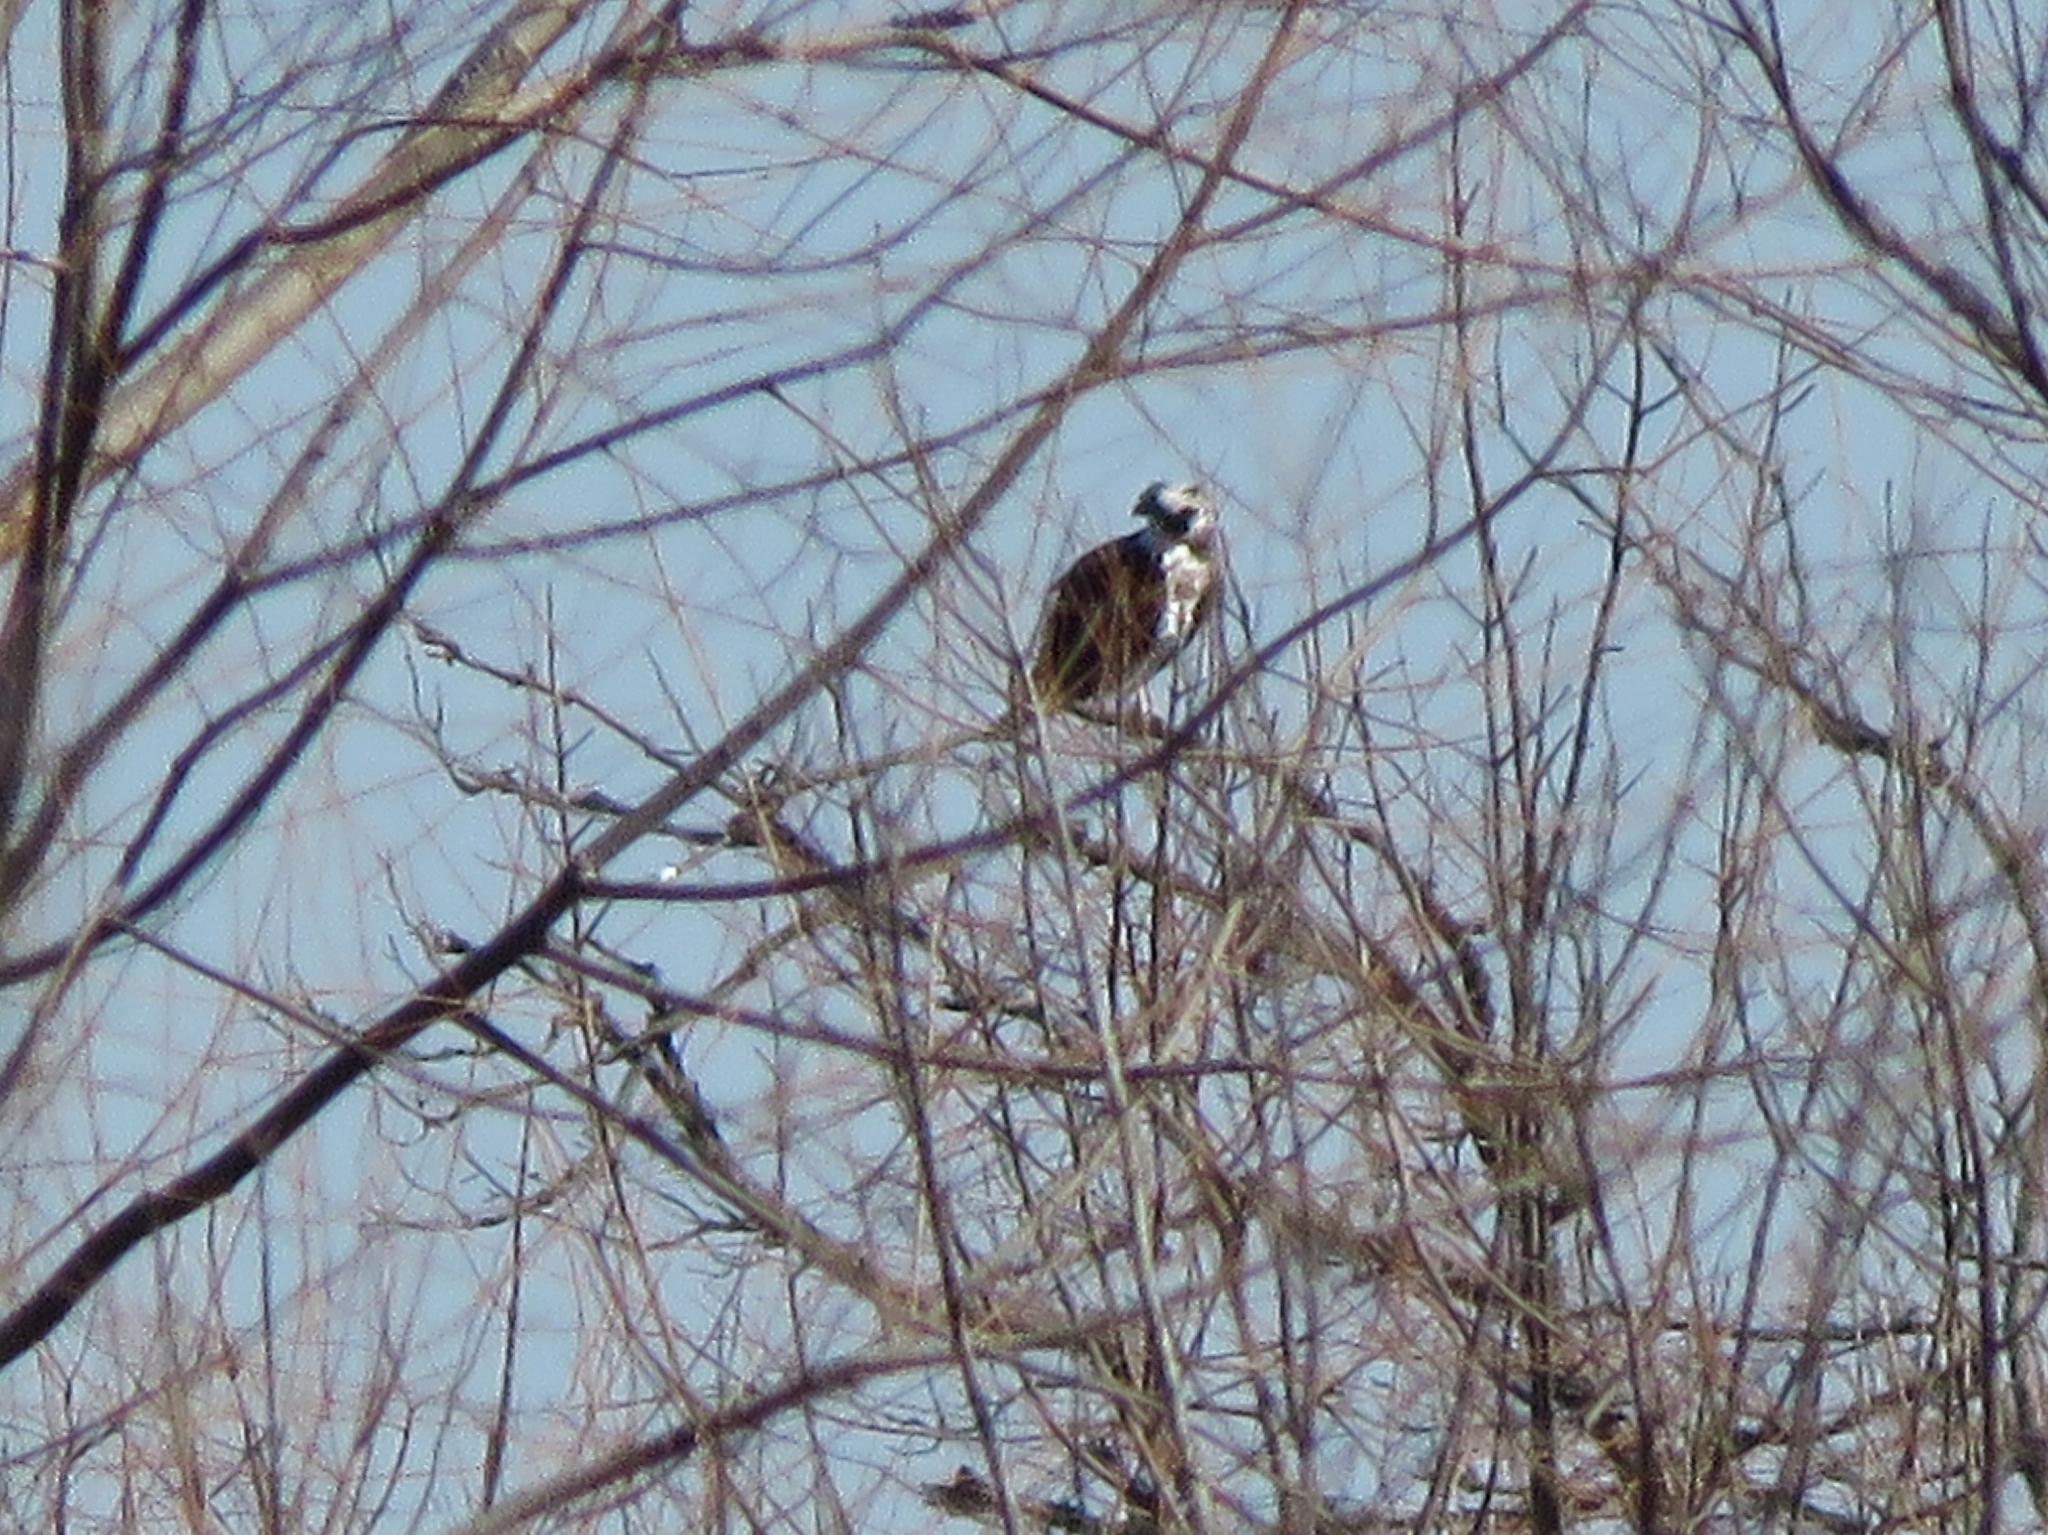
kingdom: Animalia
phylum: Chordata
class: Aves
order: Accipitriformes
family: Pandionidae
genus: Pandion
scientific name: Pandion haliaetus
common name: Osprey
